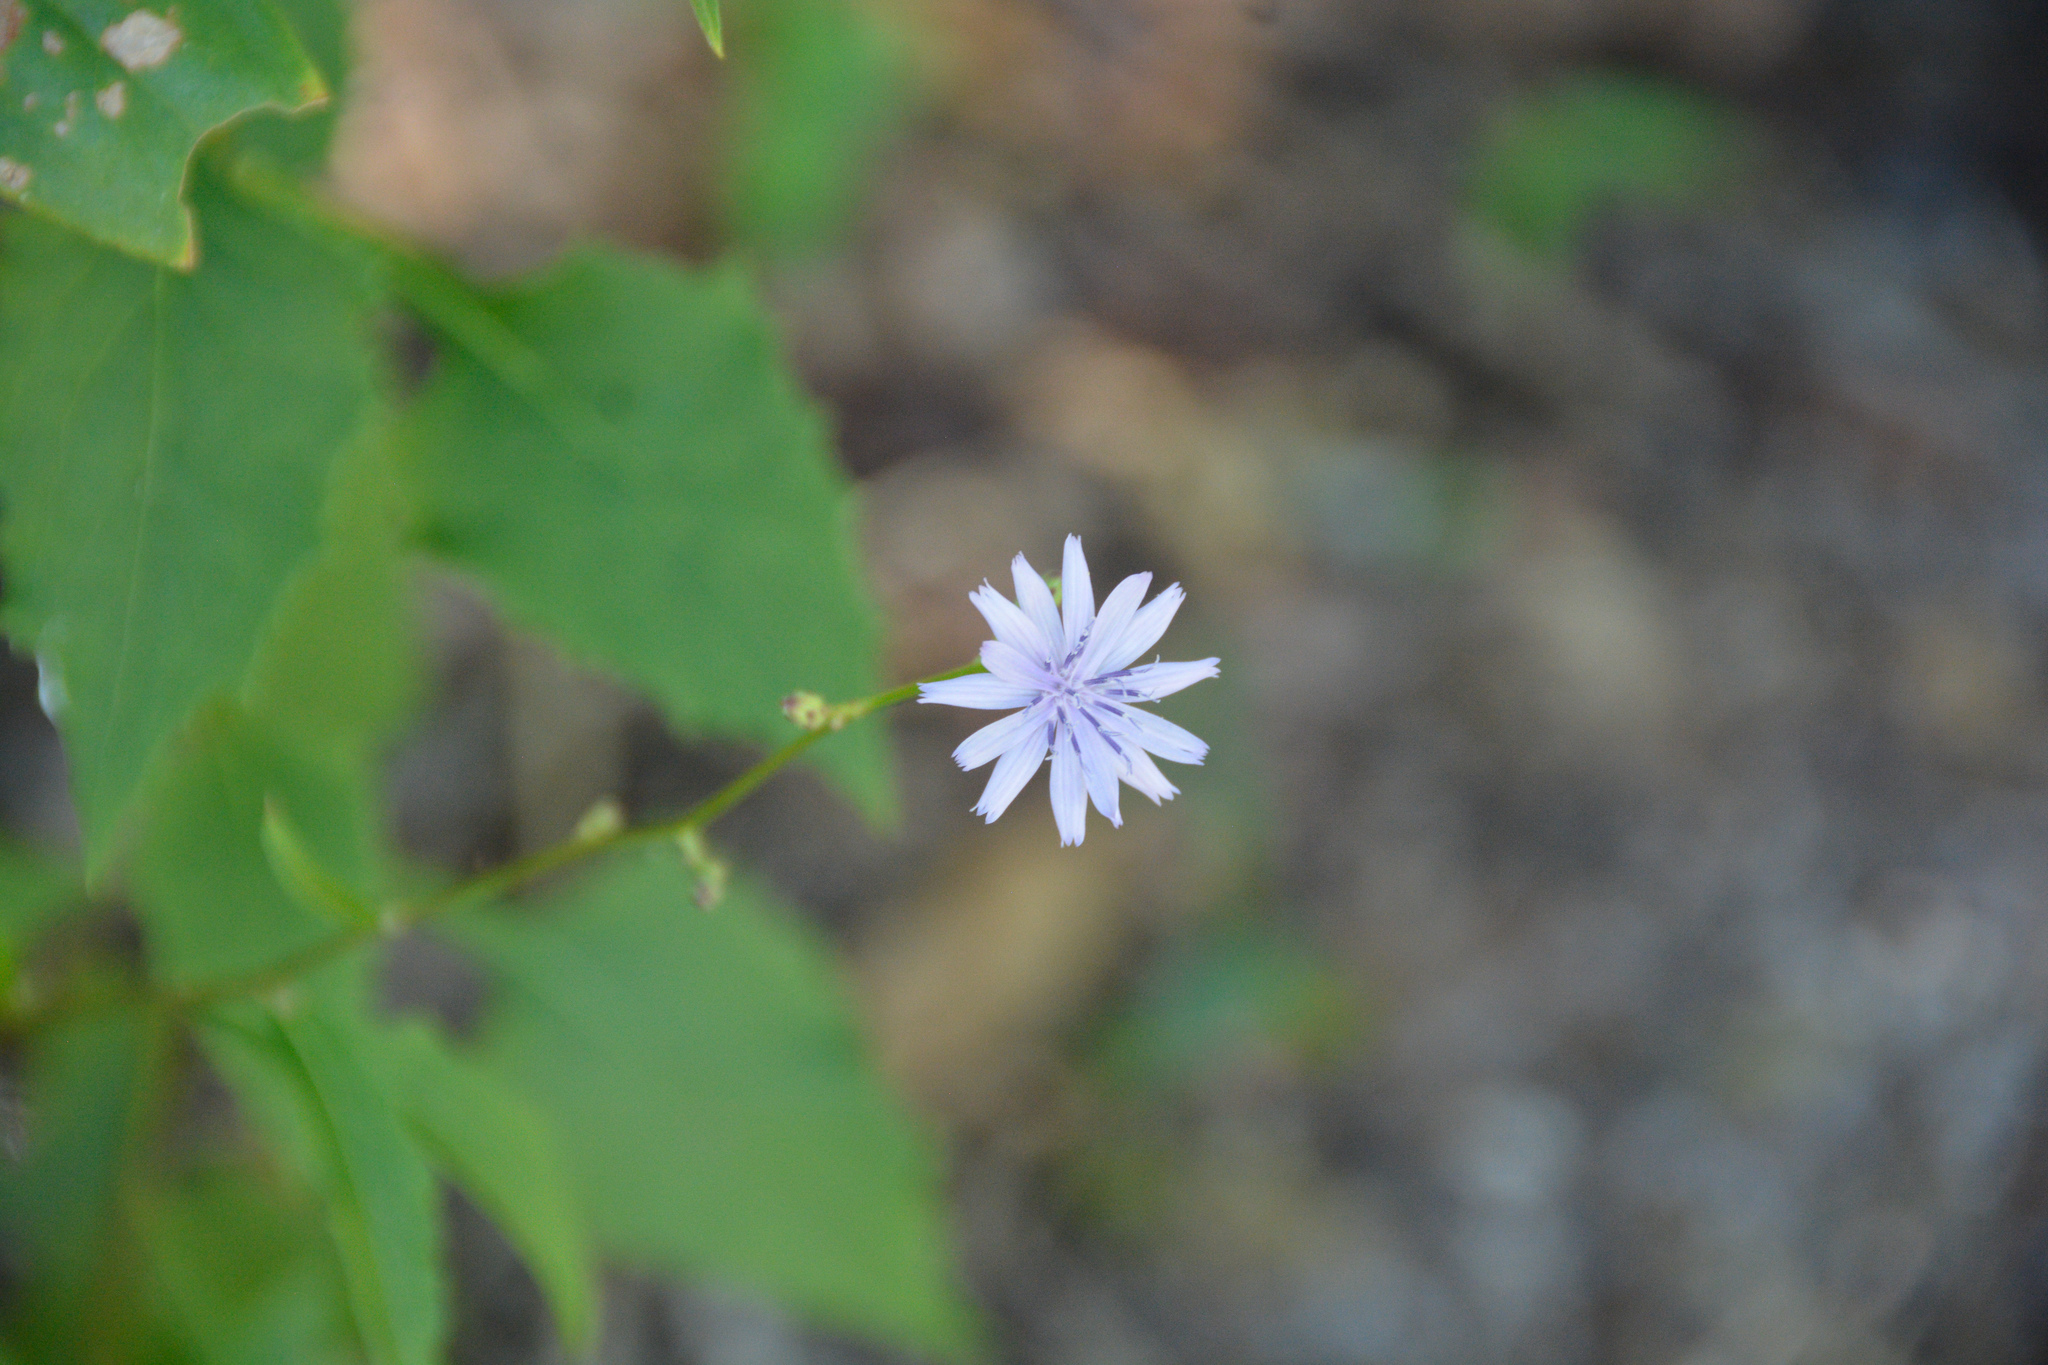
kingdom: Plantae
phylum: Tracheophyta
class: Magnoliopsida
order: Asterales
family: Asteraceae
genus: Lactuca
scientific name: Lactuca floridana
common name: Woodland lettuce
